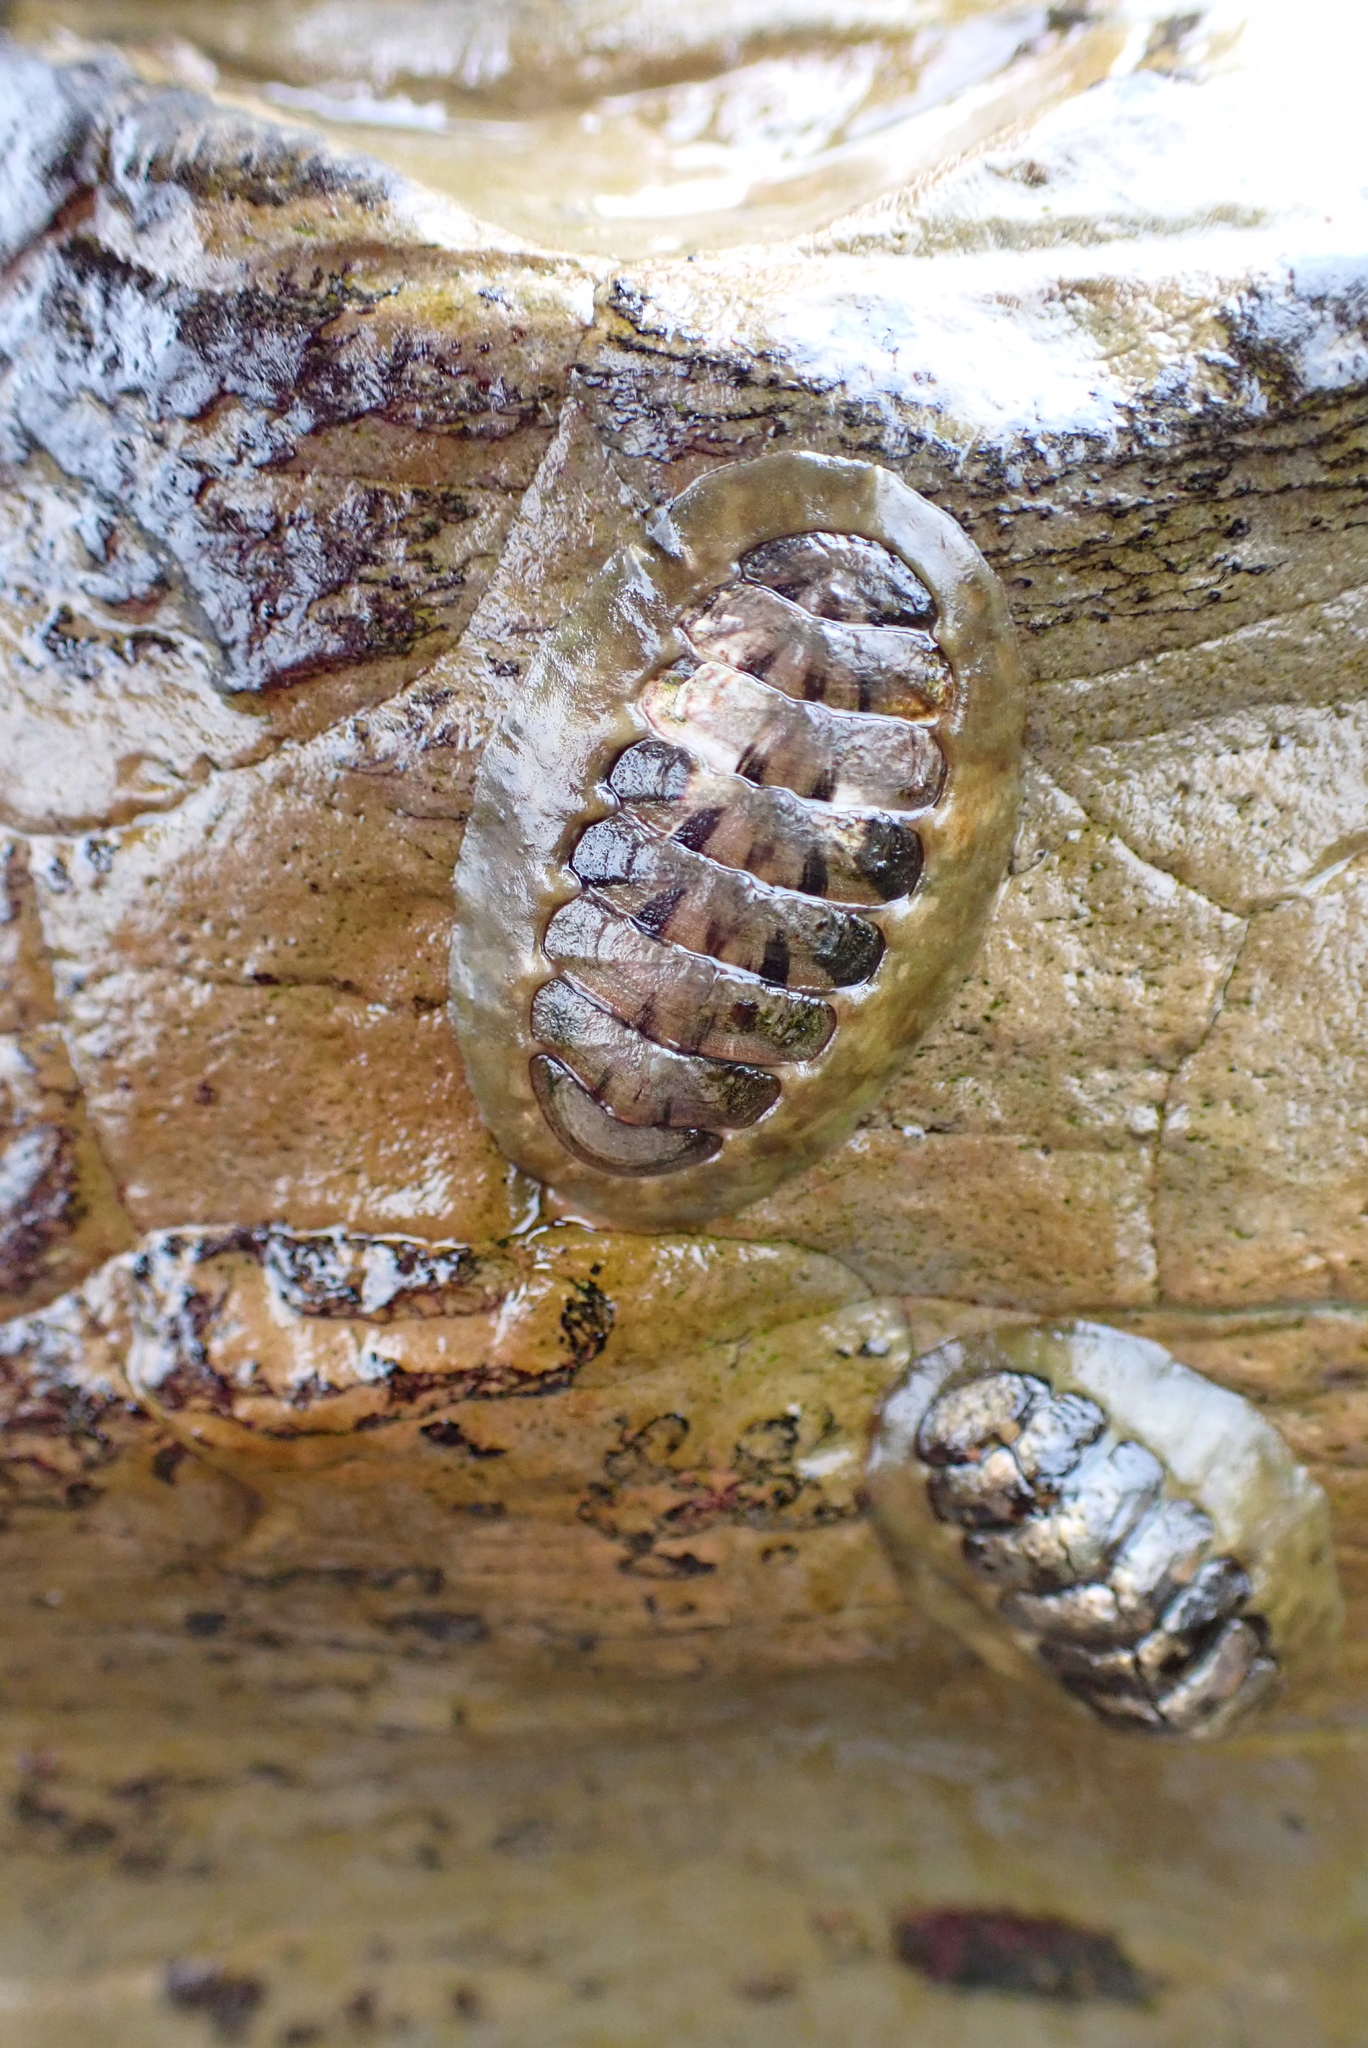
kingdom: Animalia
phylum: Mollusca
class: Polyplacophora
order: Chitonida
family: Tonicellidae
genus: Cyanoplax
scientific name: Cyanoplax hartwegii
